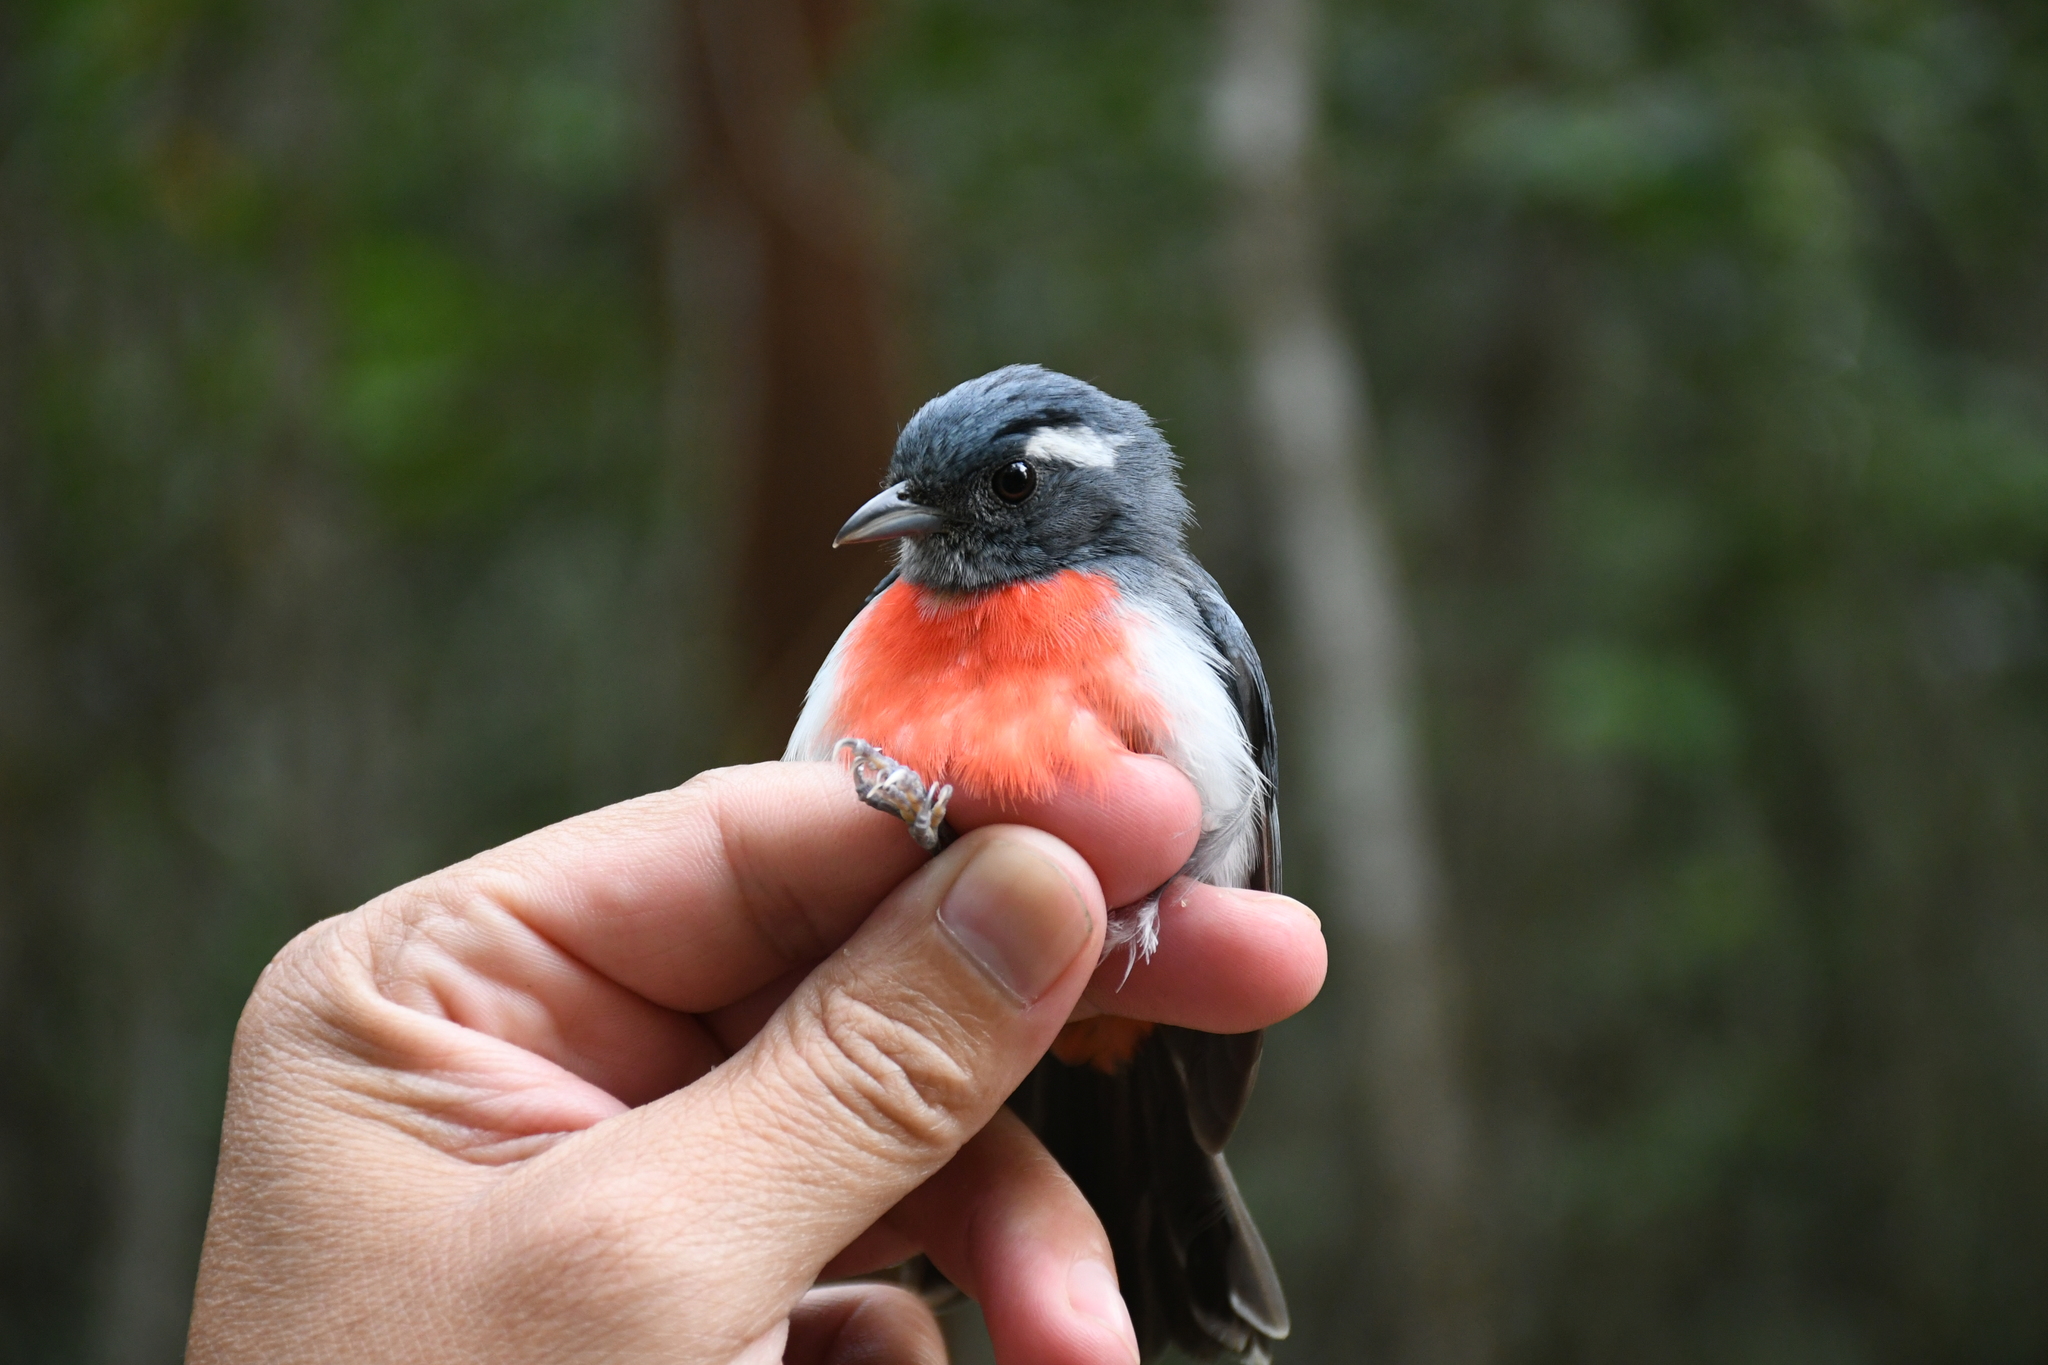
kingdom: Animalia
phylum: Chordata
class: Aves
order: Passeriformes
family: Cardinalidae
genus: Granatellus
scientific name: Granatellus sallaei
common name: Gray-throated chat
